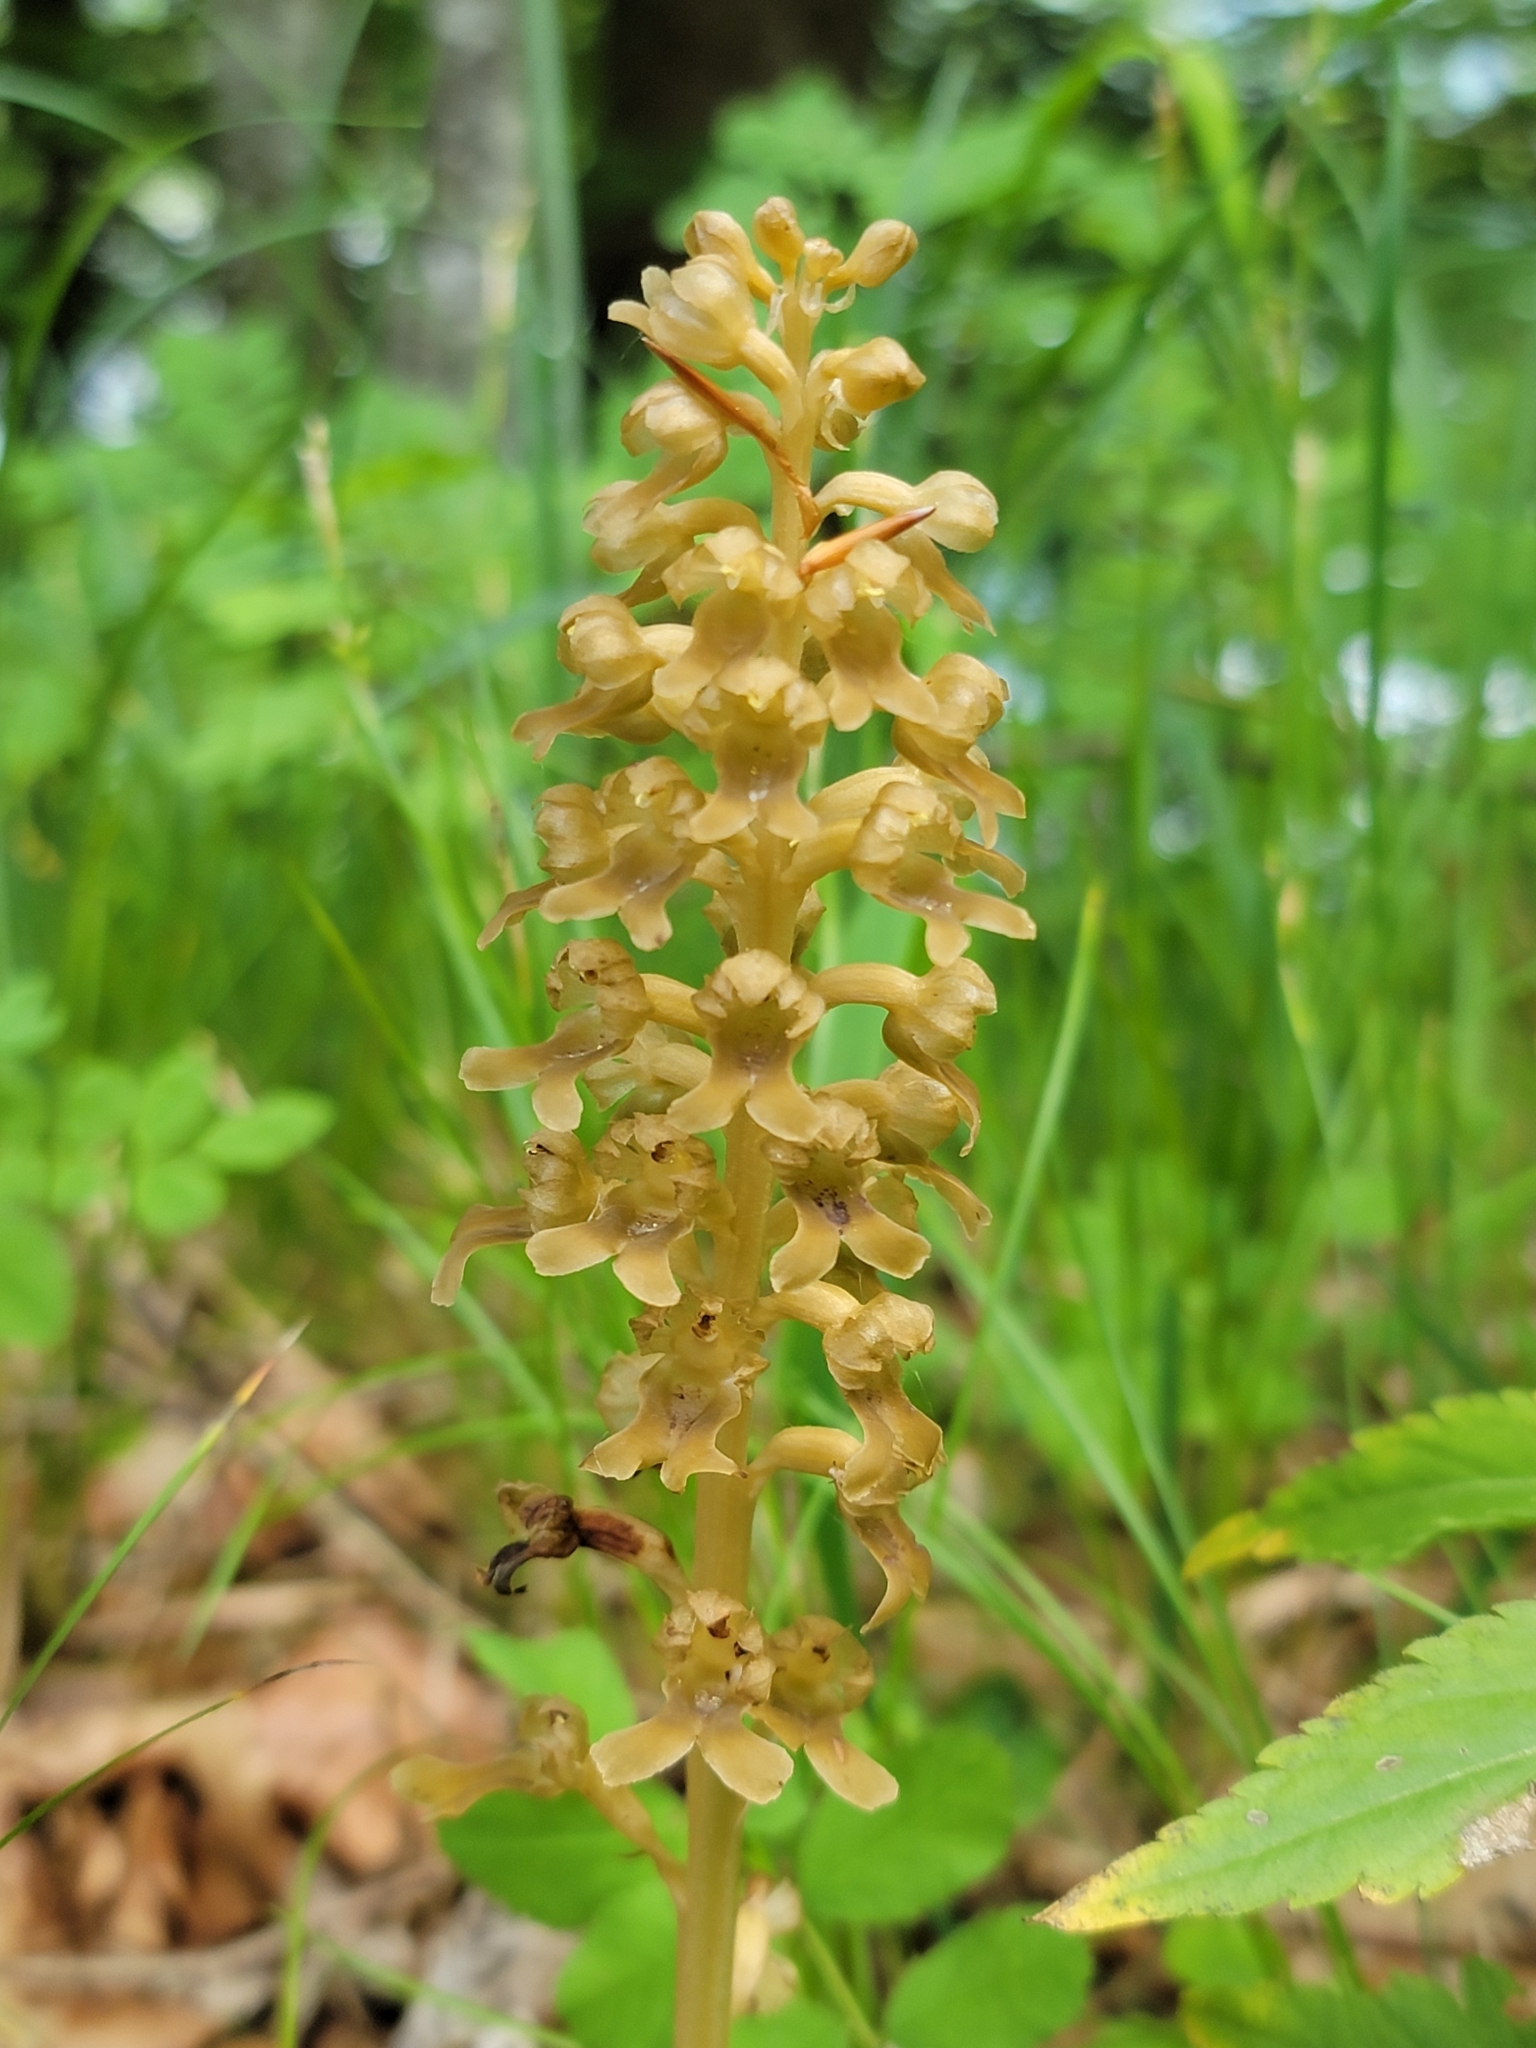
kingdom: Plantae
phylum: Tracheophyta
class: Liliopsida
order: Asparagales
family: Orchidaceae
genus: Neottia
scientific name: Neottia nidus-avis
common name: Bird's-nest orchid
